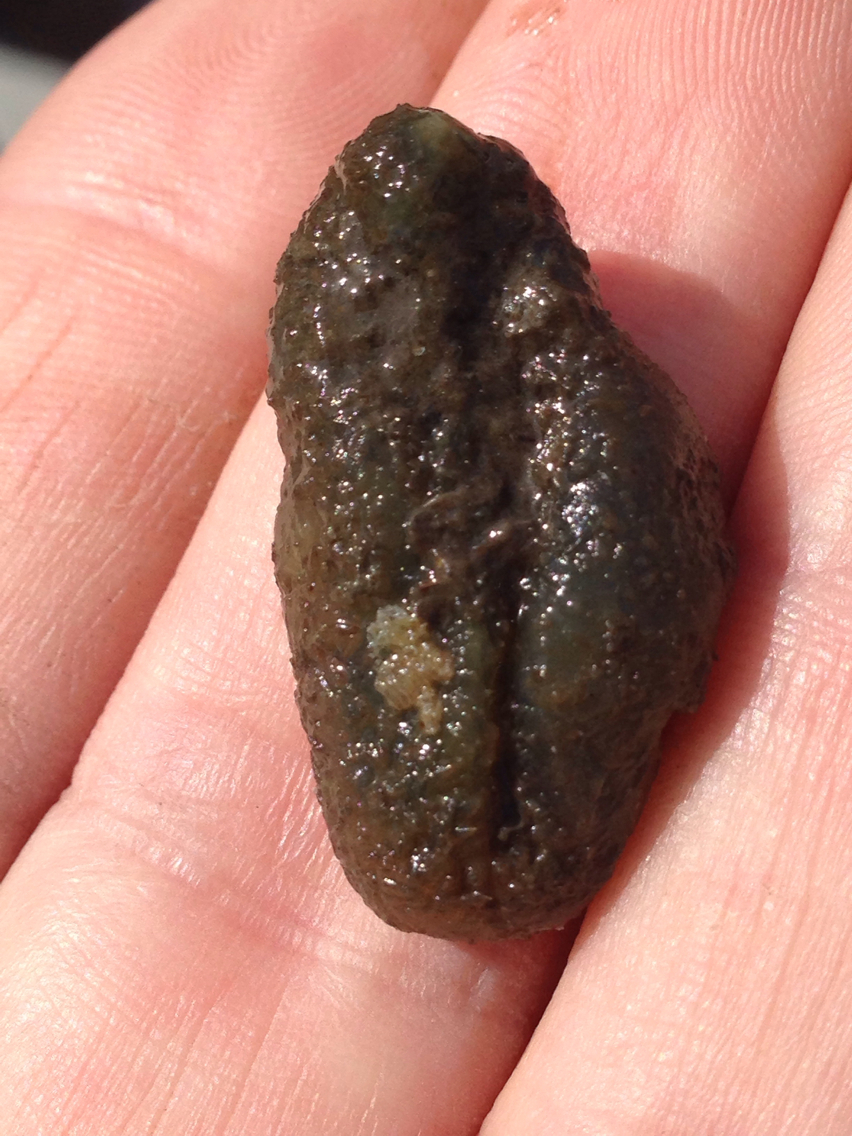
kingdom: Animalia
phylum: Chordata
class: Ascidiacea
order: Phlebobranchia
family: Ascidiidae
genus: Ascidia
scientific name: Ascidia zara
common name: Tunicate
